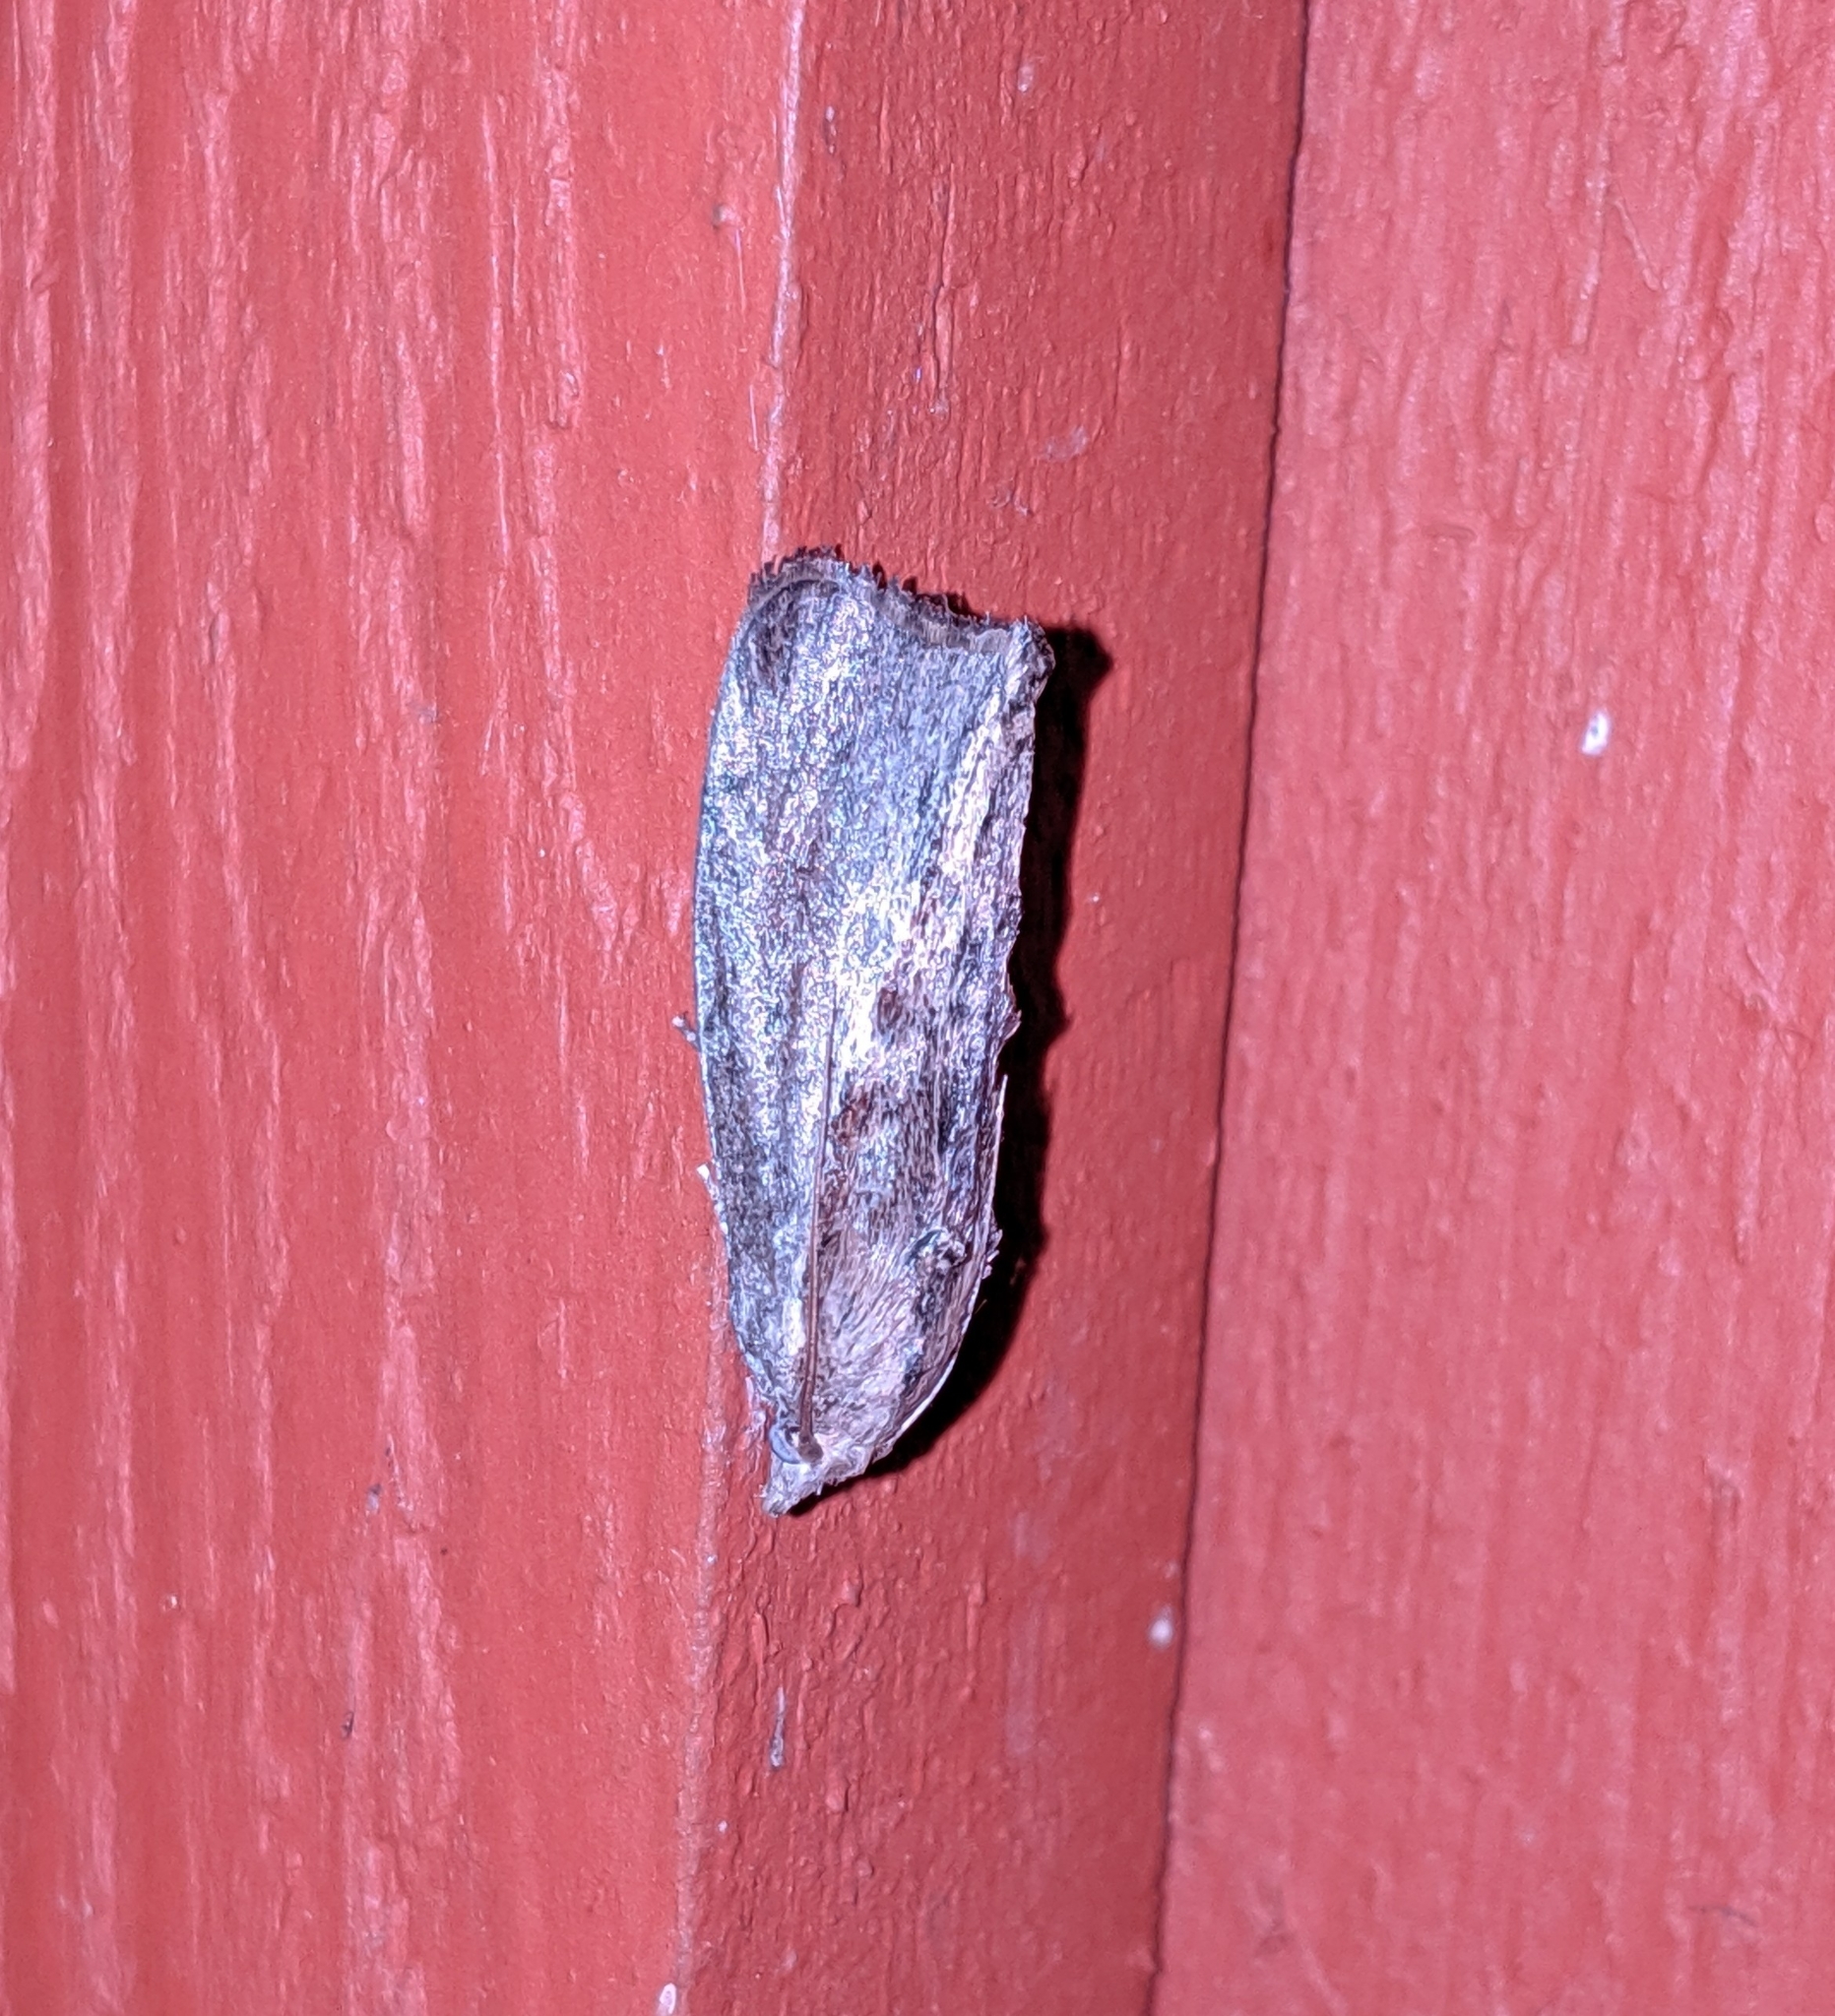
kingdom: Animalia
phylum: Arthropoda
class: Insecta
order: Lepidoptera
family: Pyralidae
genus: Galleria
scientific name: Galleria mellonella
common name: Greater wax moth
